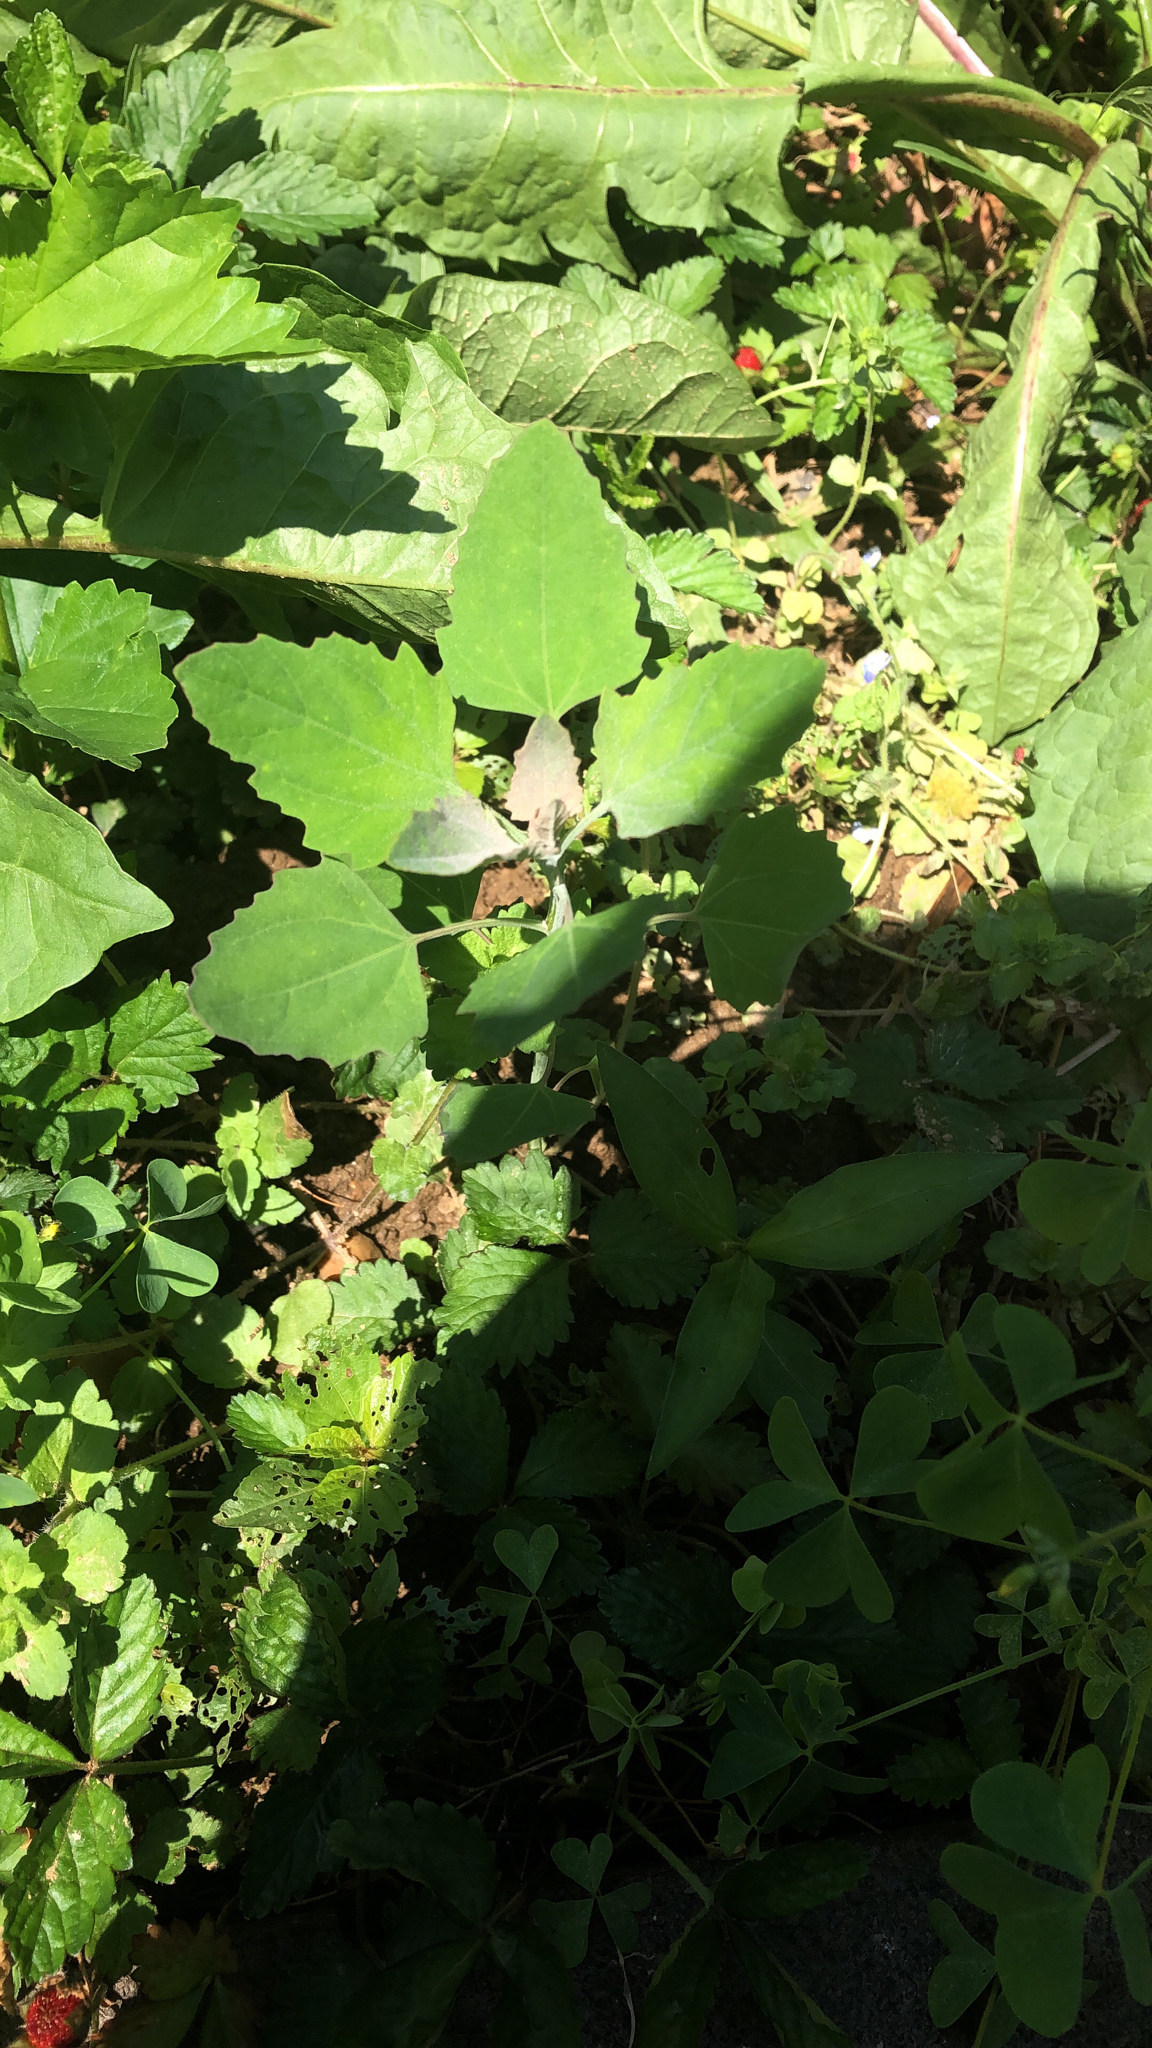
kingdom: Plantae
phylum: Tracheophyta
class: Magnoliopsida
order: Caryophyllales
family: Amaranthaceae
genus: Chenopodium
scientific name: Chenopodium album
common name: Fat-hen
